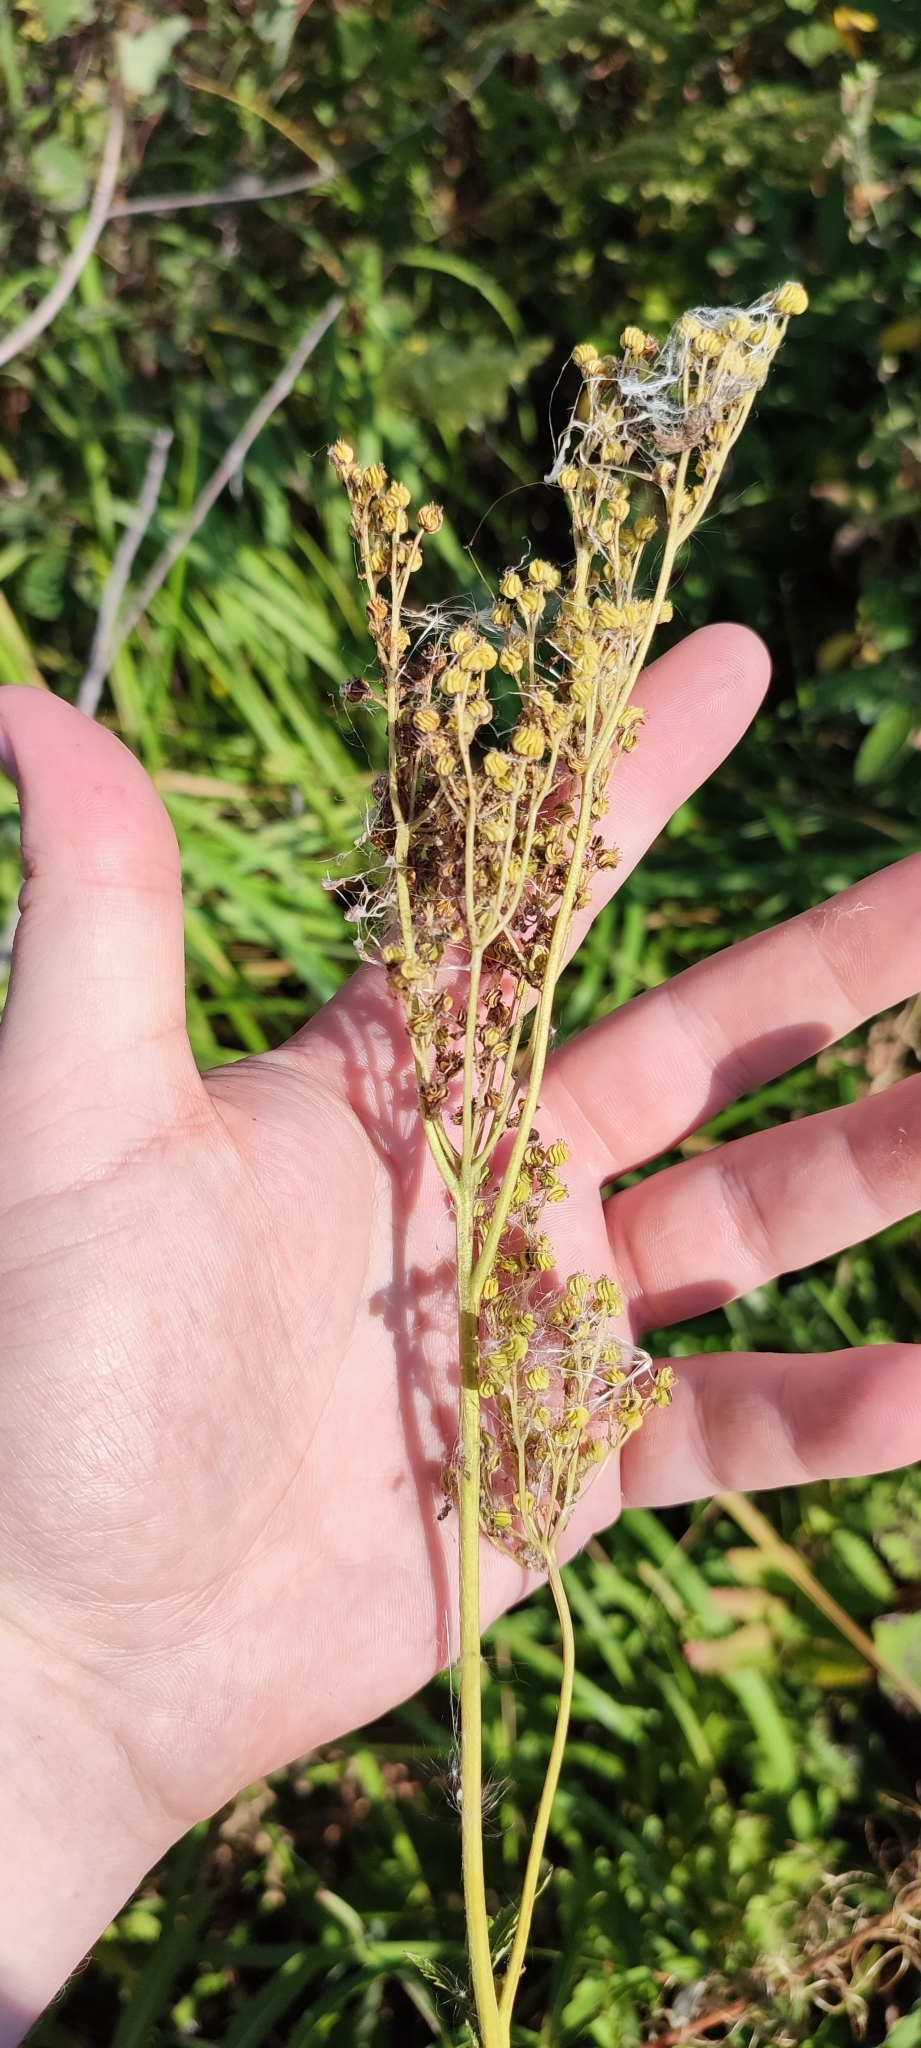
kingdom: Plantae
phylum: Tracheophyta
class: Magnoliopsida
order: Rosales
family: Rosaceae
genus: Filipendula
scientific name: Filipendula ulmaria
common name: Meadowsweet
